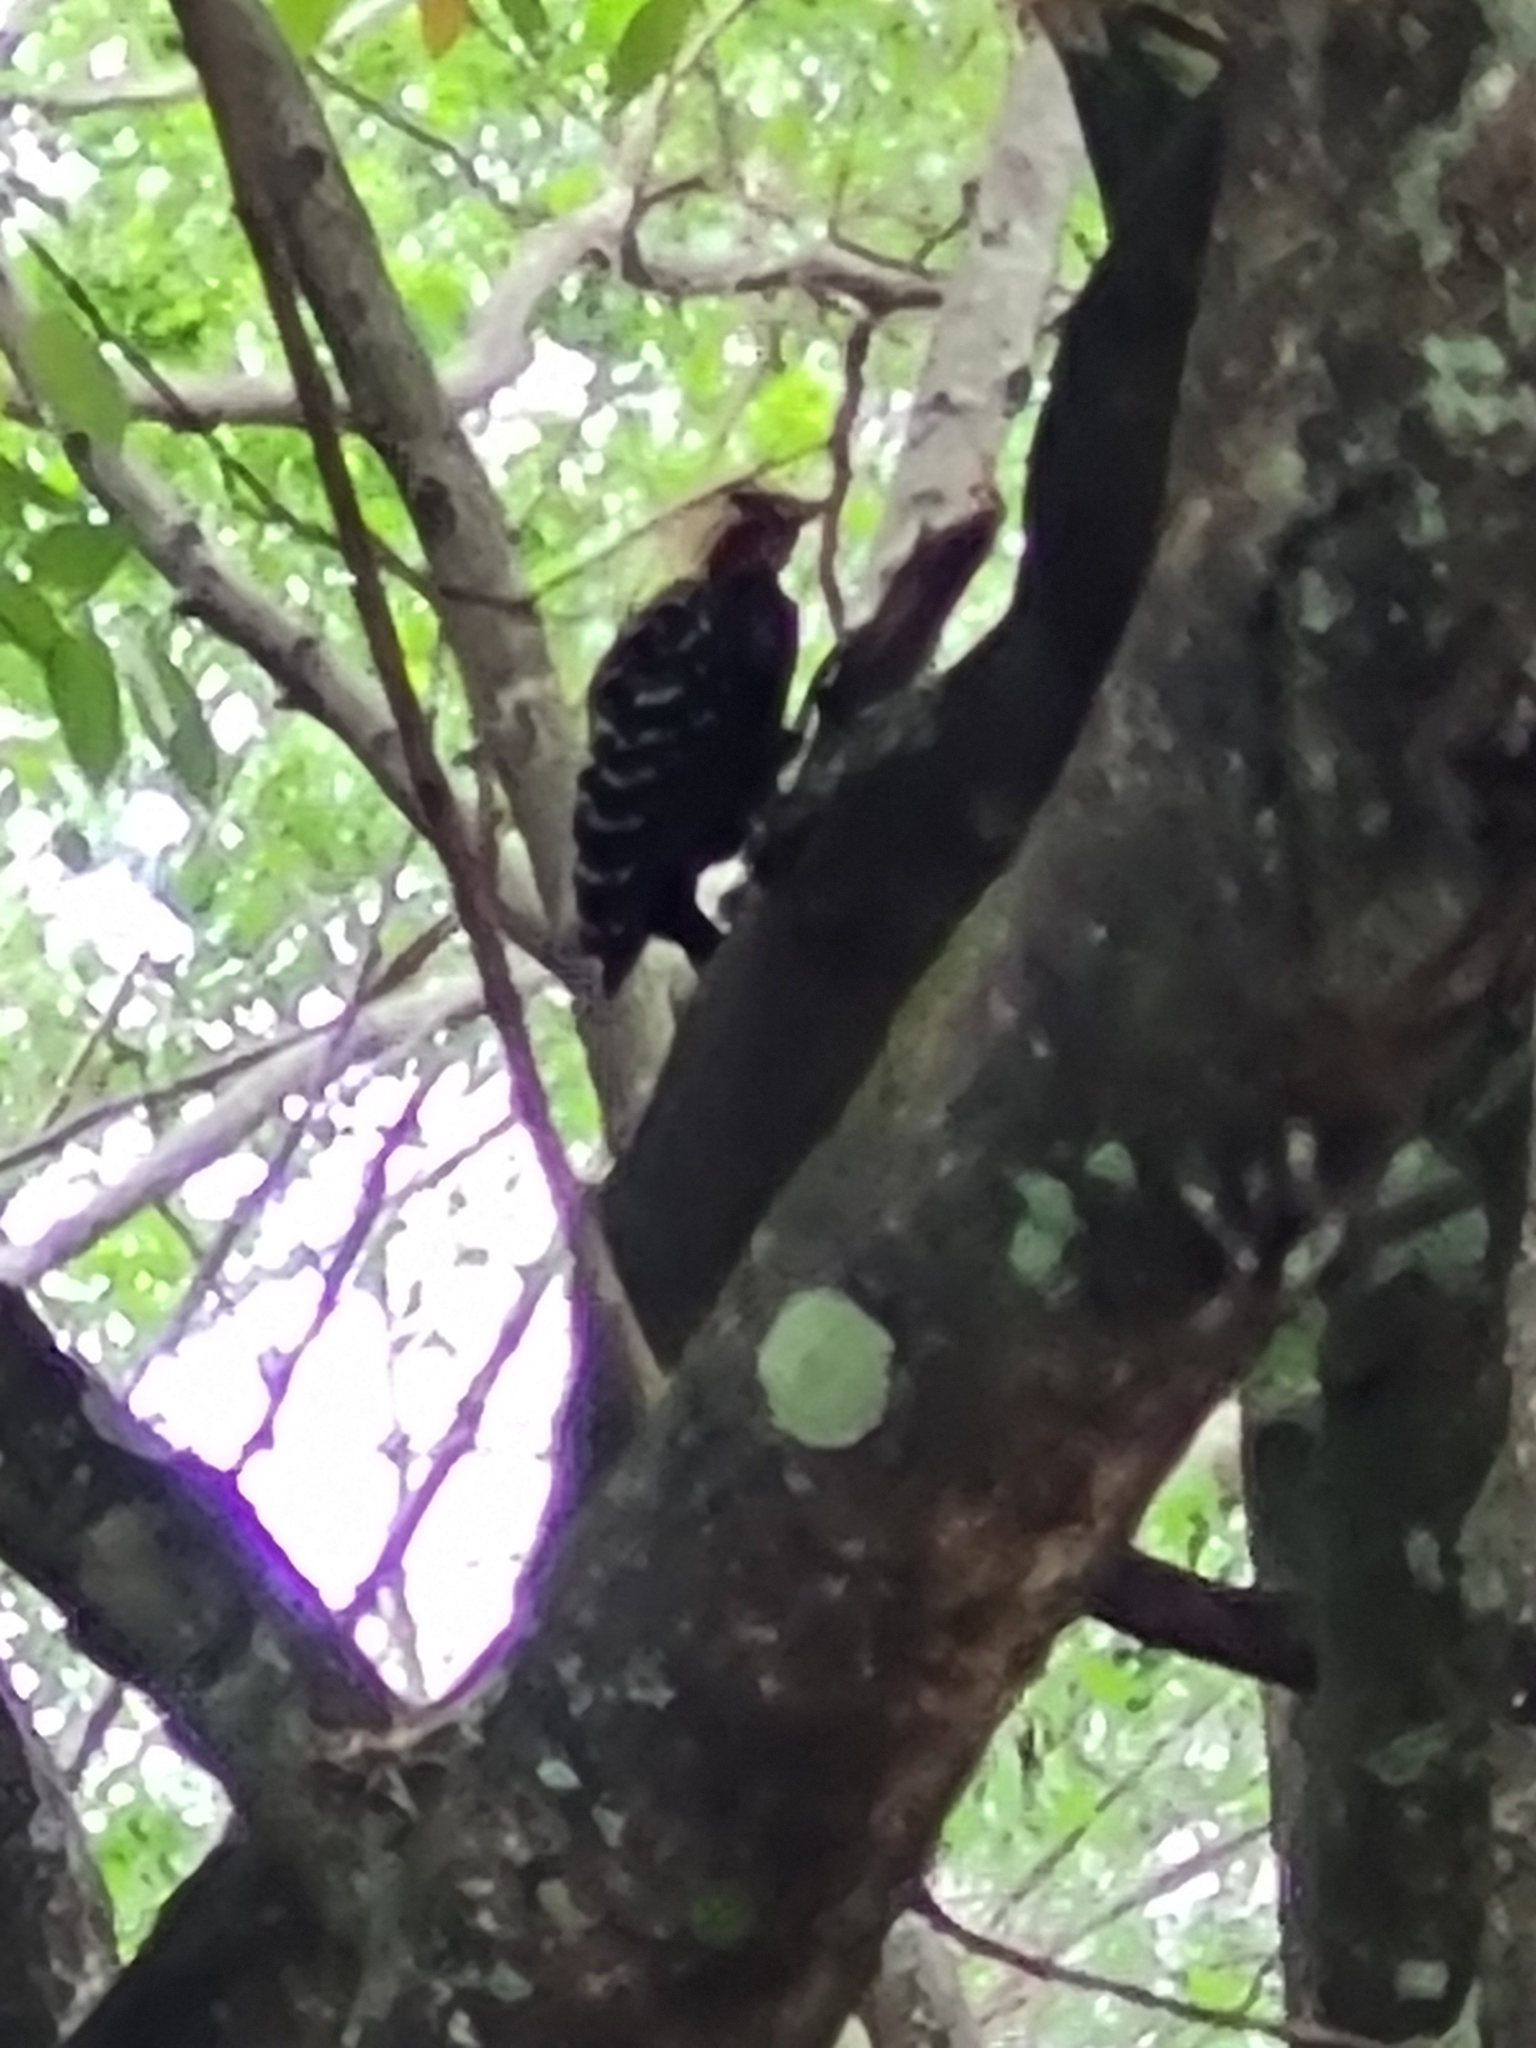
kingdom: Animalia
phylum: Chordata
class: Aves
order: Piciformes
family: Picidae
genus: Celeus
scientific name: Celeus flavescens
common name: Blond-crested woodpecker
